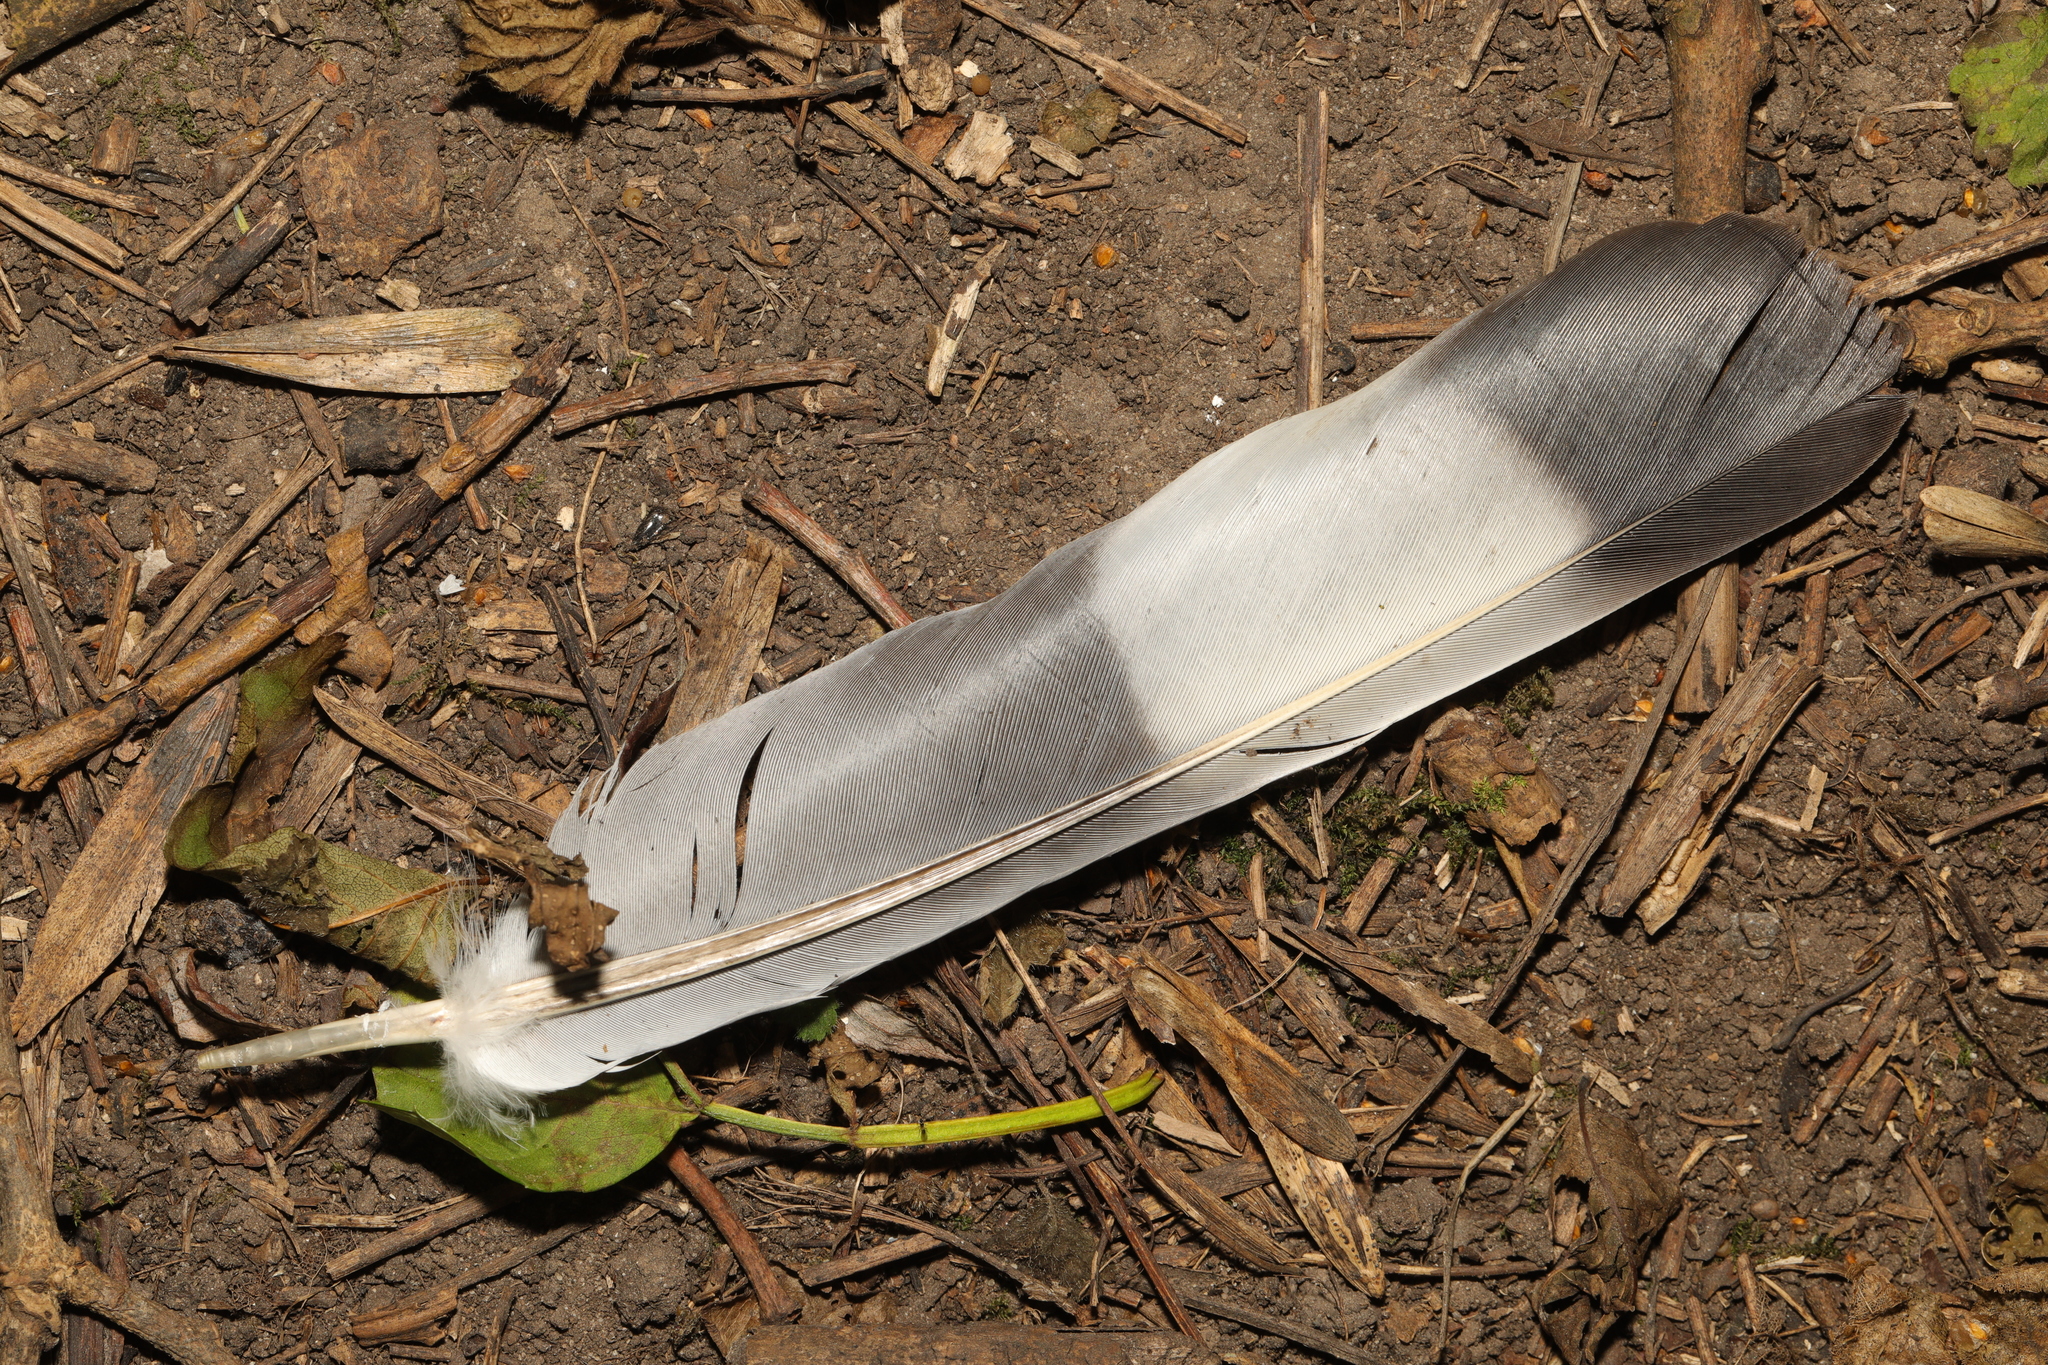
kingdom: Animalia
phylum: Chordata
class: Aves
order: Columbiformes
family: Columbidae
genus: Columba
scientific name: Columba palumbus
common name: Common wood pigeon
